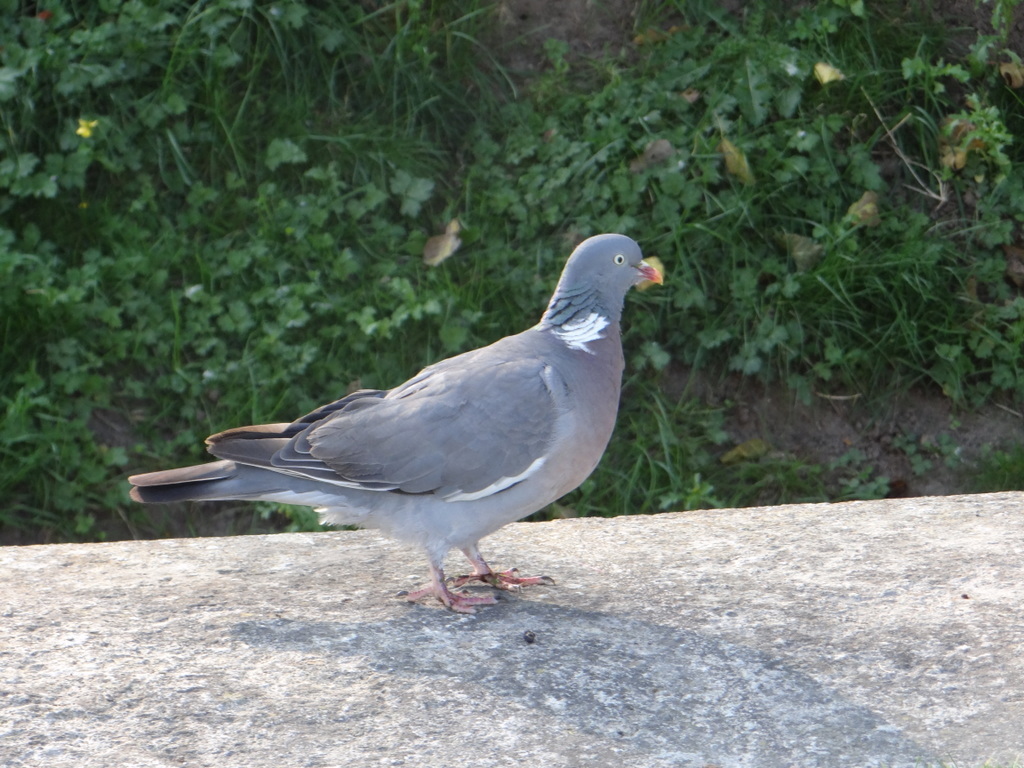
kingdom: Animalia
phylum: Chordata
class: Aves
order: Columbiformes
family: Columbidae
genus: Columba
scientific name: Columba palumbus
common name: Common wood pigeon
